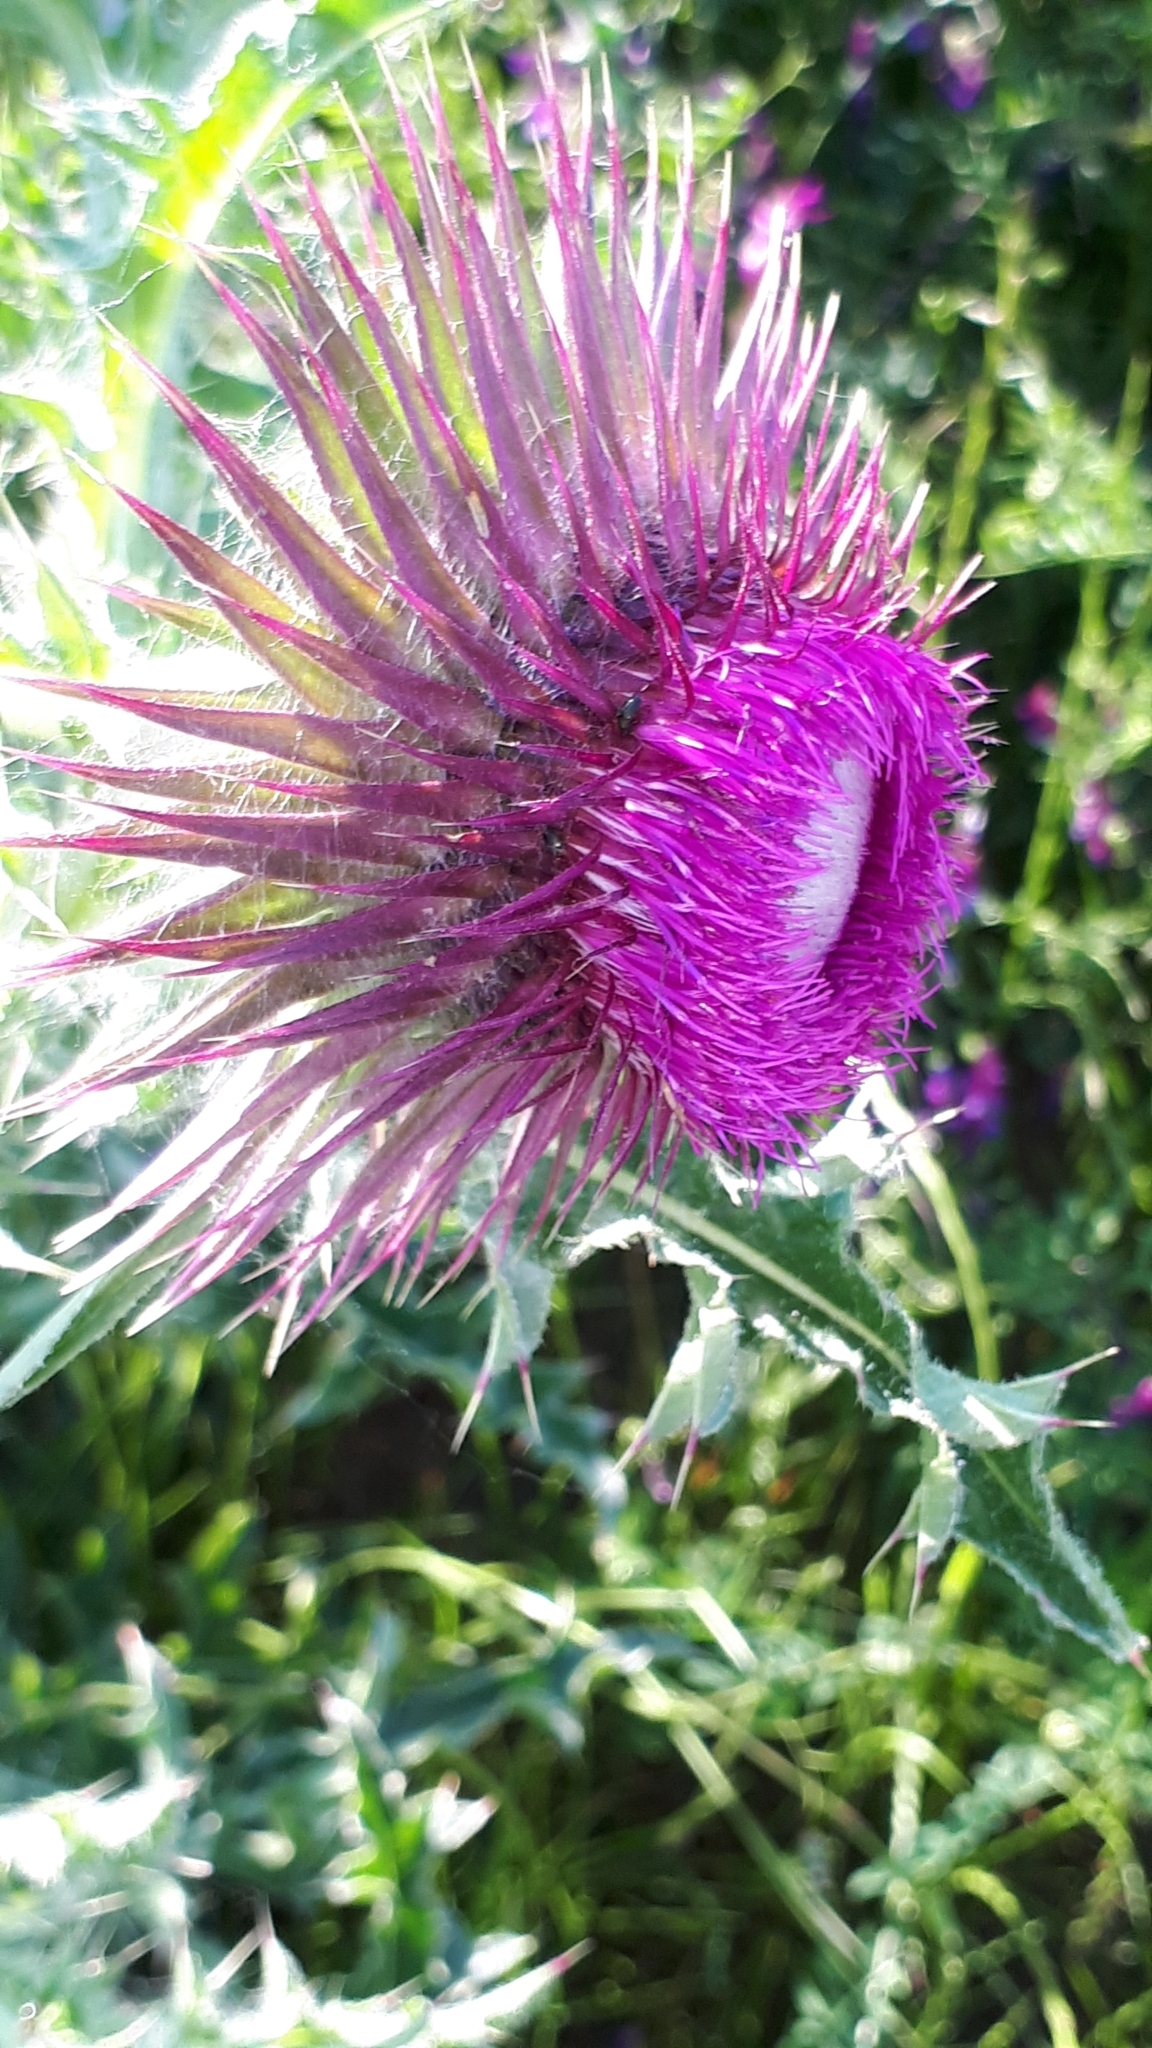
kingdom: Plantae
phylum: Tracheophyta
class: Magnoliopsida
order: Asterales
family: Asteraceae
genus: Carduus
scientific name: Carduus nutans
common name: Musk thistle
